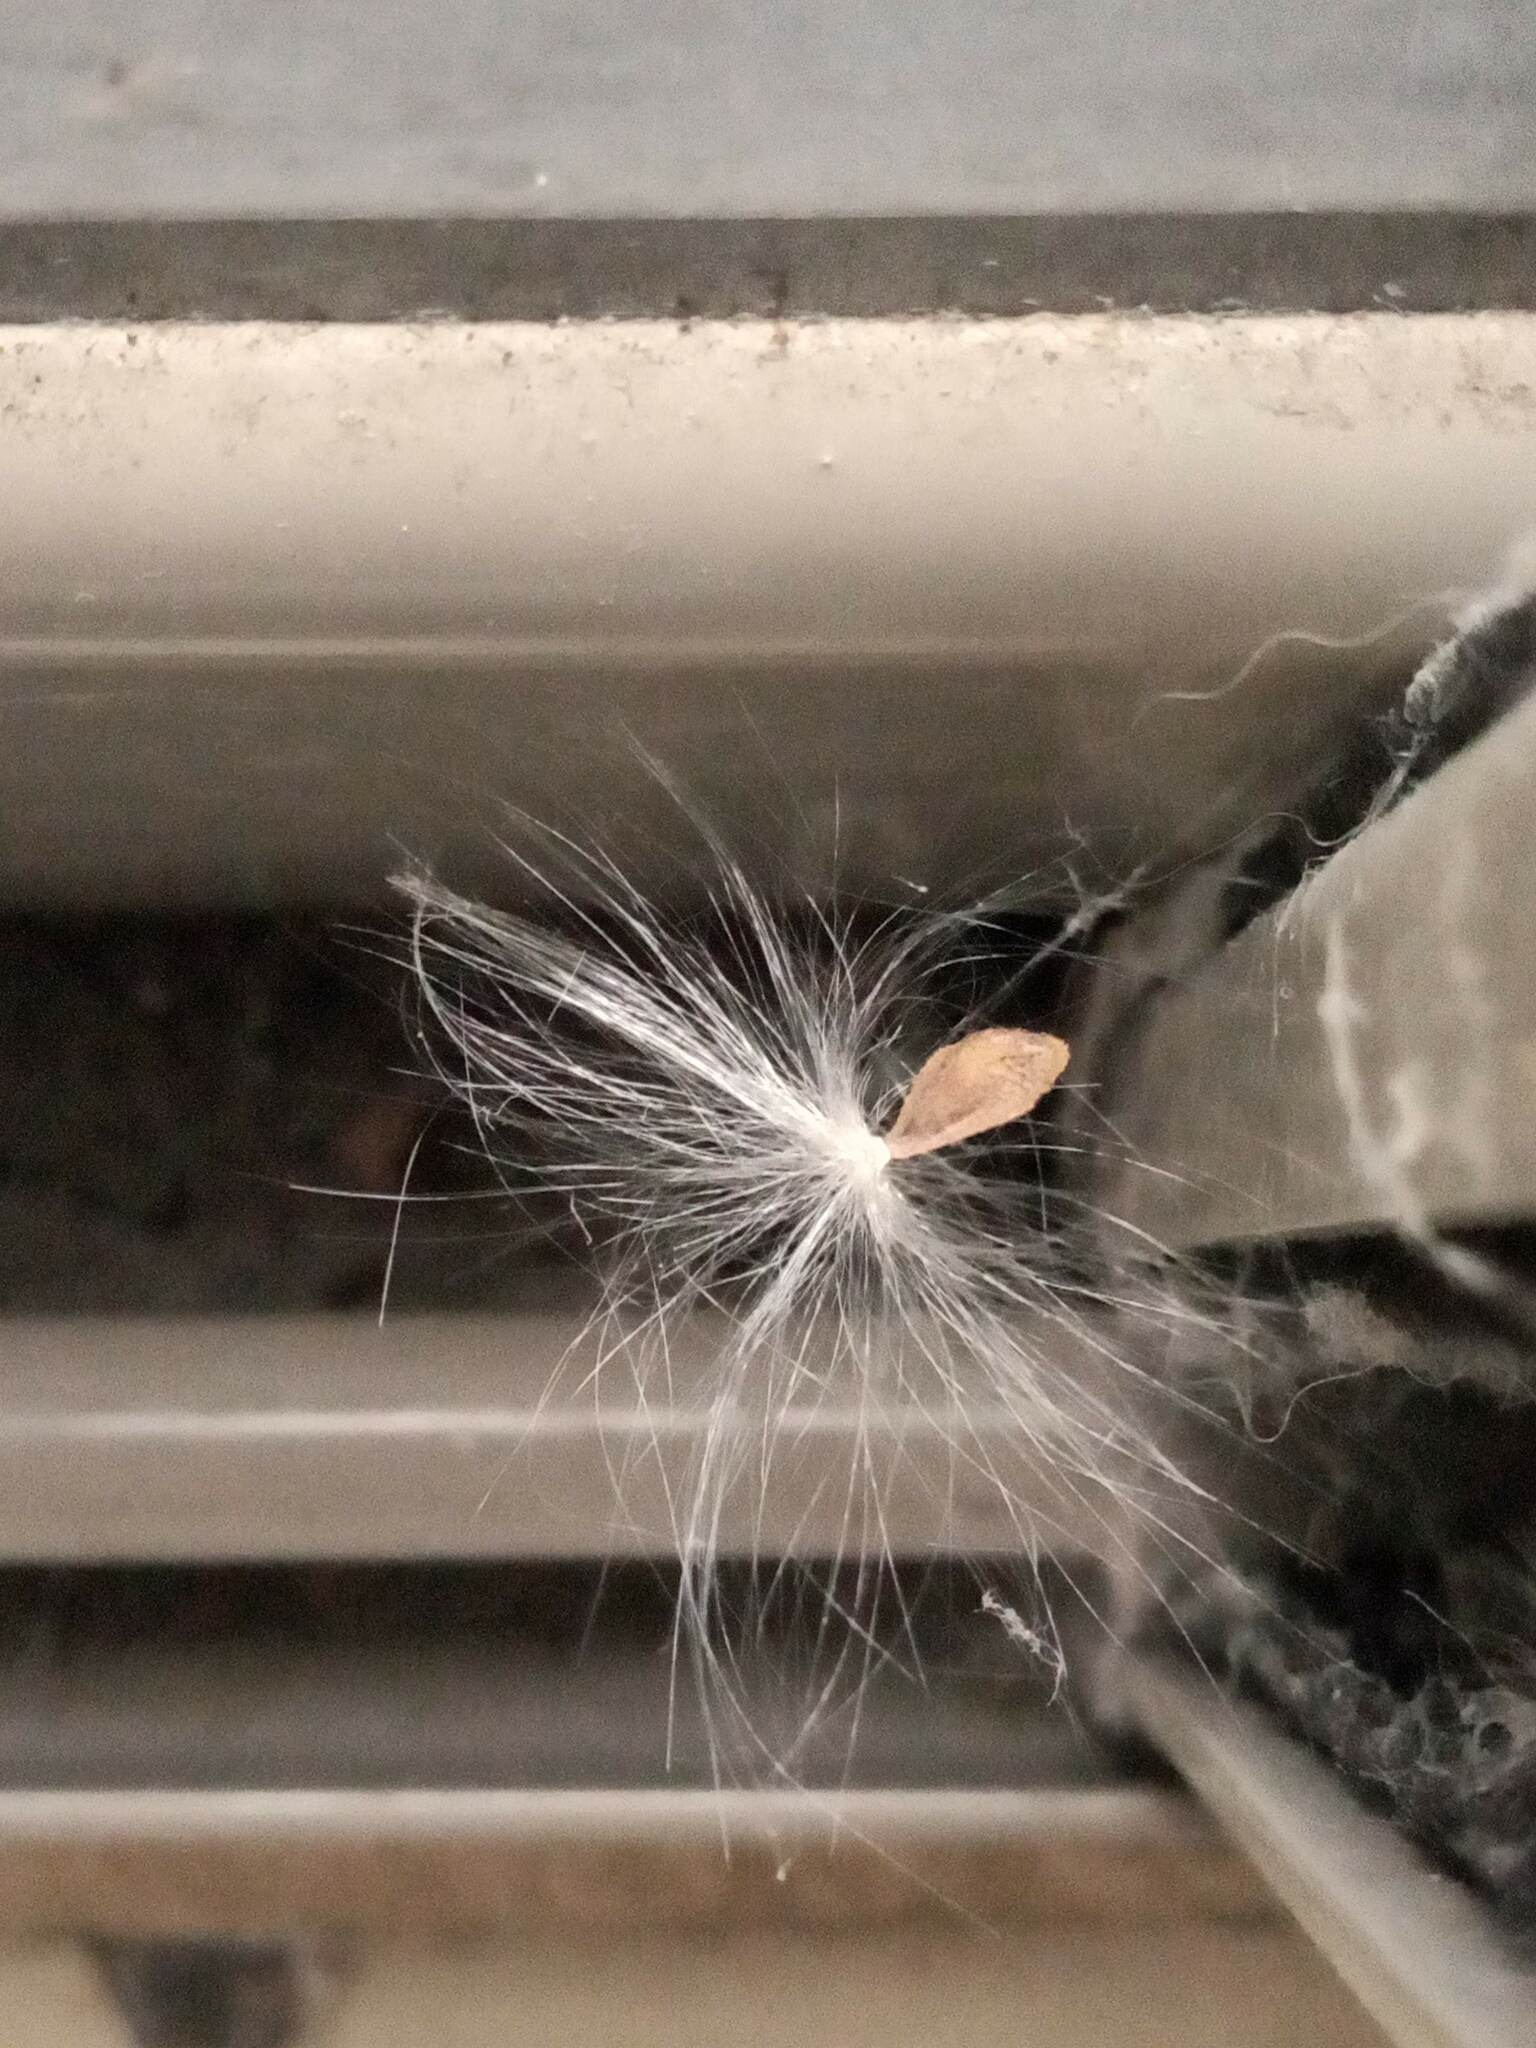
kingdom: Plantae
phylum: Tracheophyta
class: Magnoliopsida
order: Gentianales
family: Apocynaceae
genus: Asclepias
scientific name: Asclepias curassavica
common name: Bloodflower
